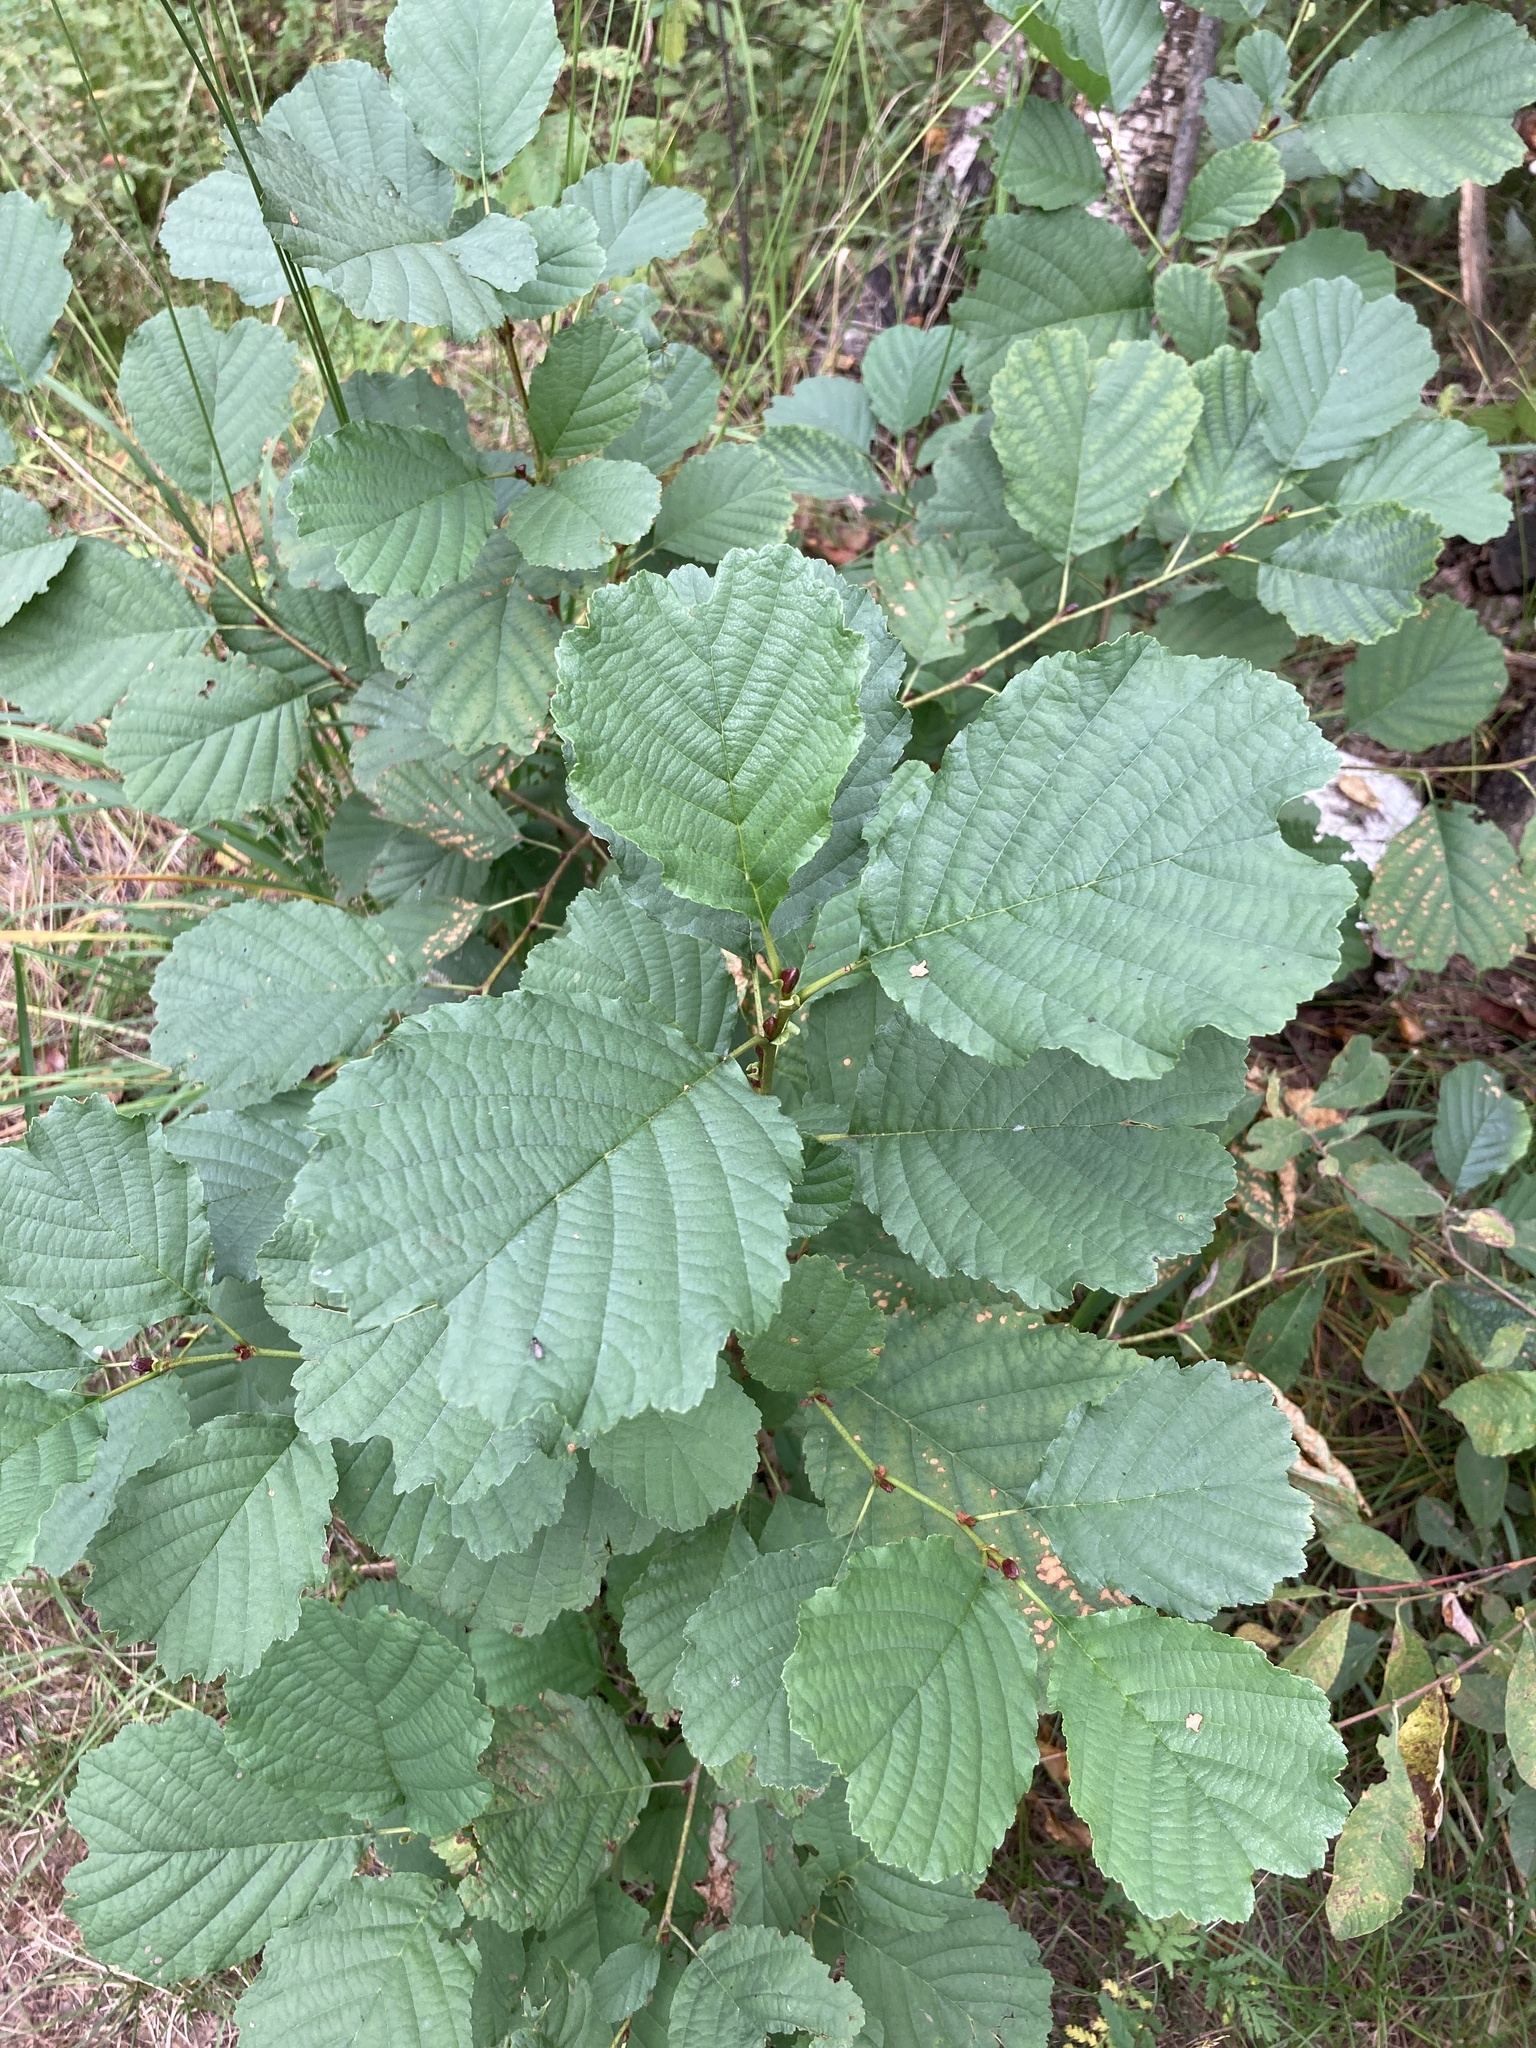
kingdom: Plantae
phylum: Tracheophyta
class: Magnoliopsida
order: Fagales
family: Betulaceae
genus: Alnus
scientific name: Alnus glutinosa
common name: Black alder
